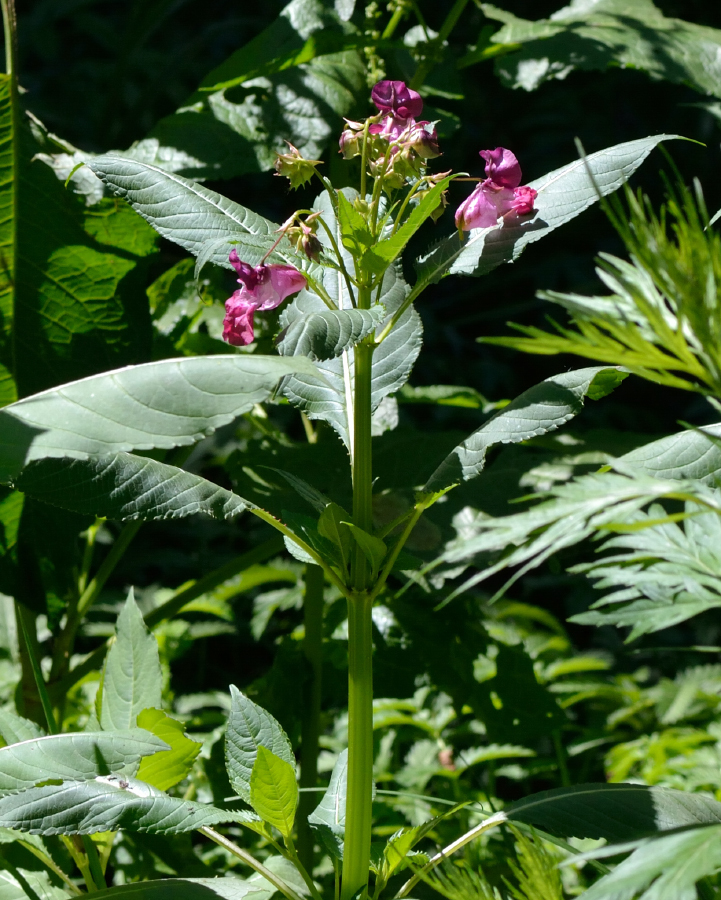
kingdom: Plantae
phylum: Tracheophyta
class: Magnoliopsida
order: Ericales
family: Balsaminaceae
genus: Impatiens
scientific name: Impatiens glandulifera
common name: Himalayan balsam
